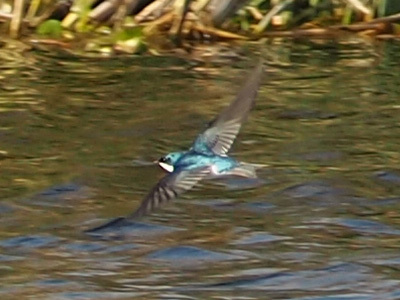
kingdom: Animalia
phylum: Chordata
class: Aves
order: Passeriformes
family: Hirundinidae
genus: Tachycineta
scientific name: Tachycineta bicolor
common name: Tree swallow
